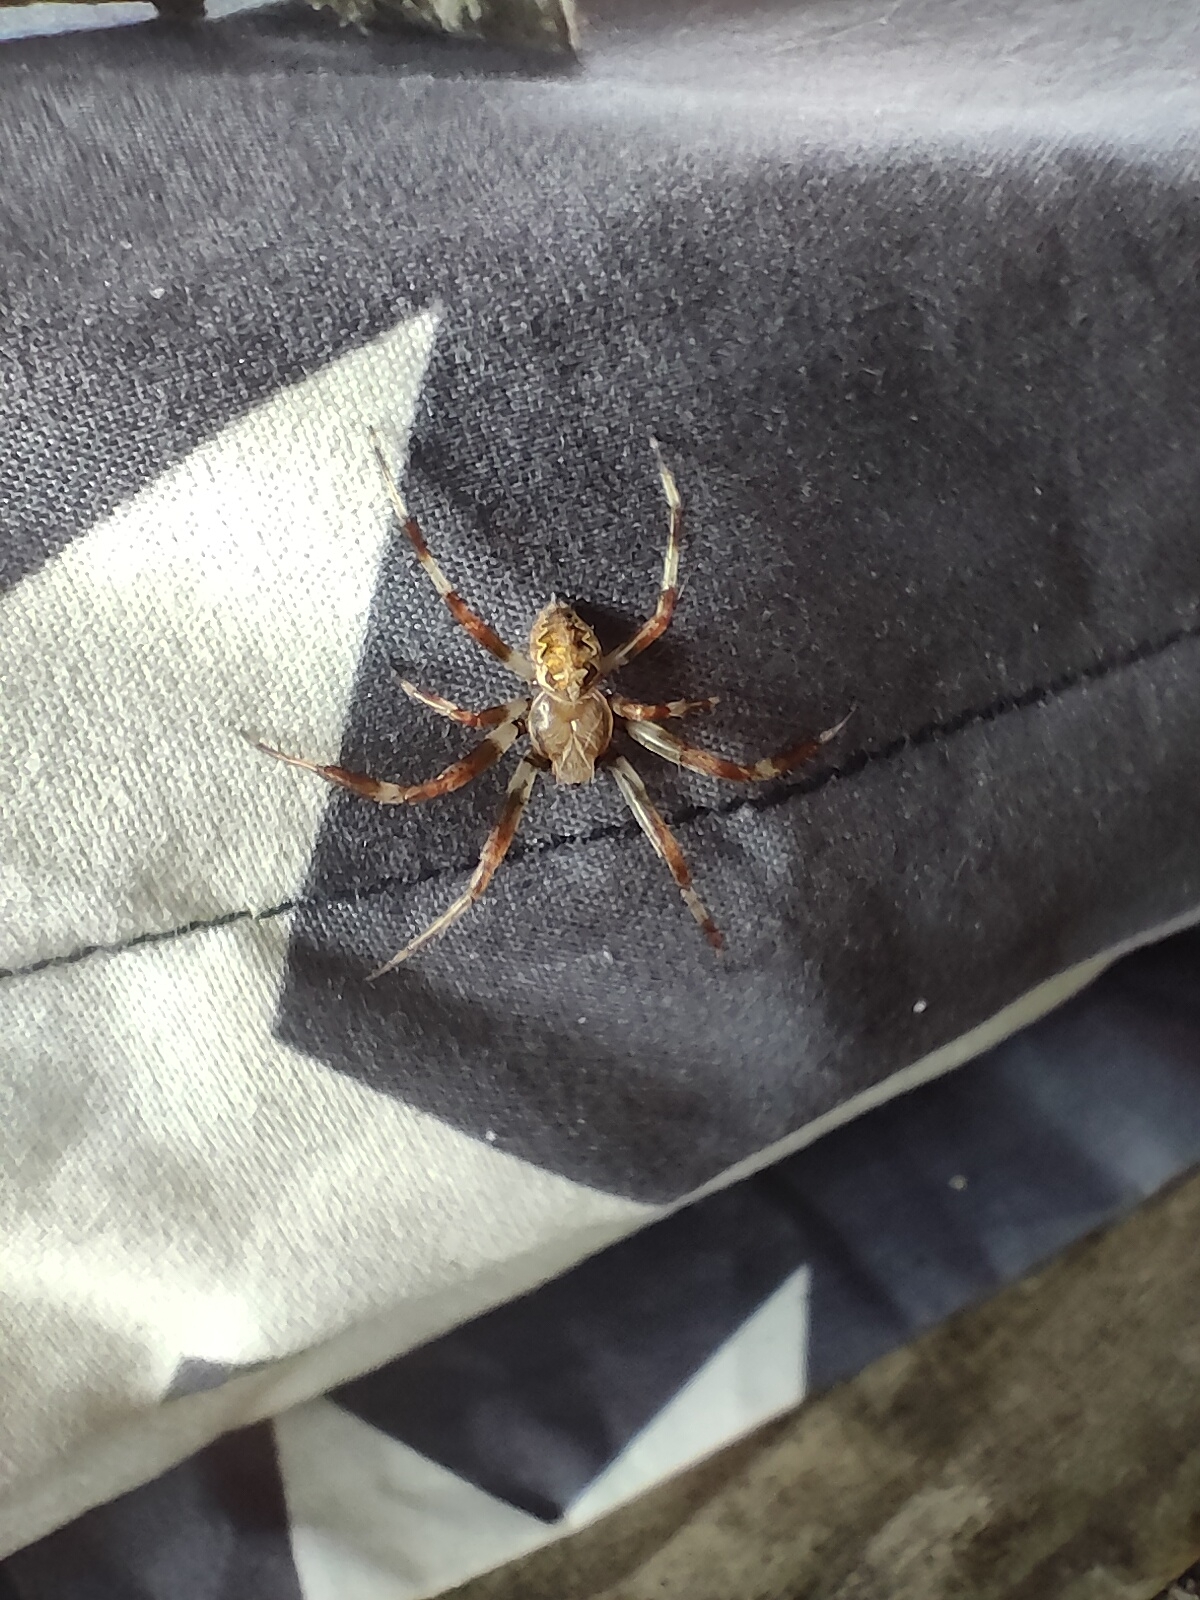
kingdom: Animalia
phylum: Arthropoda
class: Arachnida
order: Araneae
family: Araneidae
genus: Araneus
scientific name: Araneus diadematus
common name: Cross orbweaver
